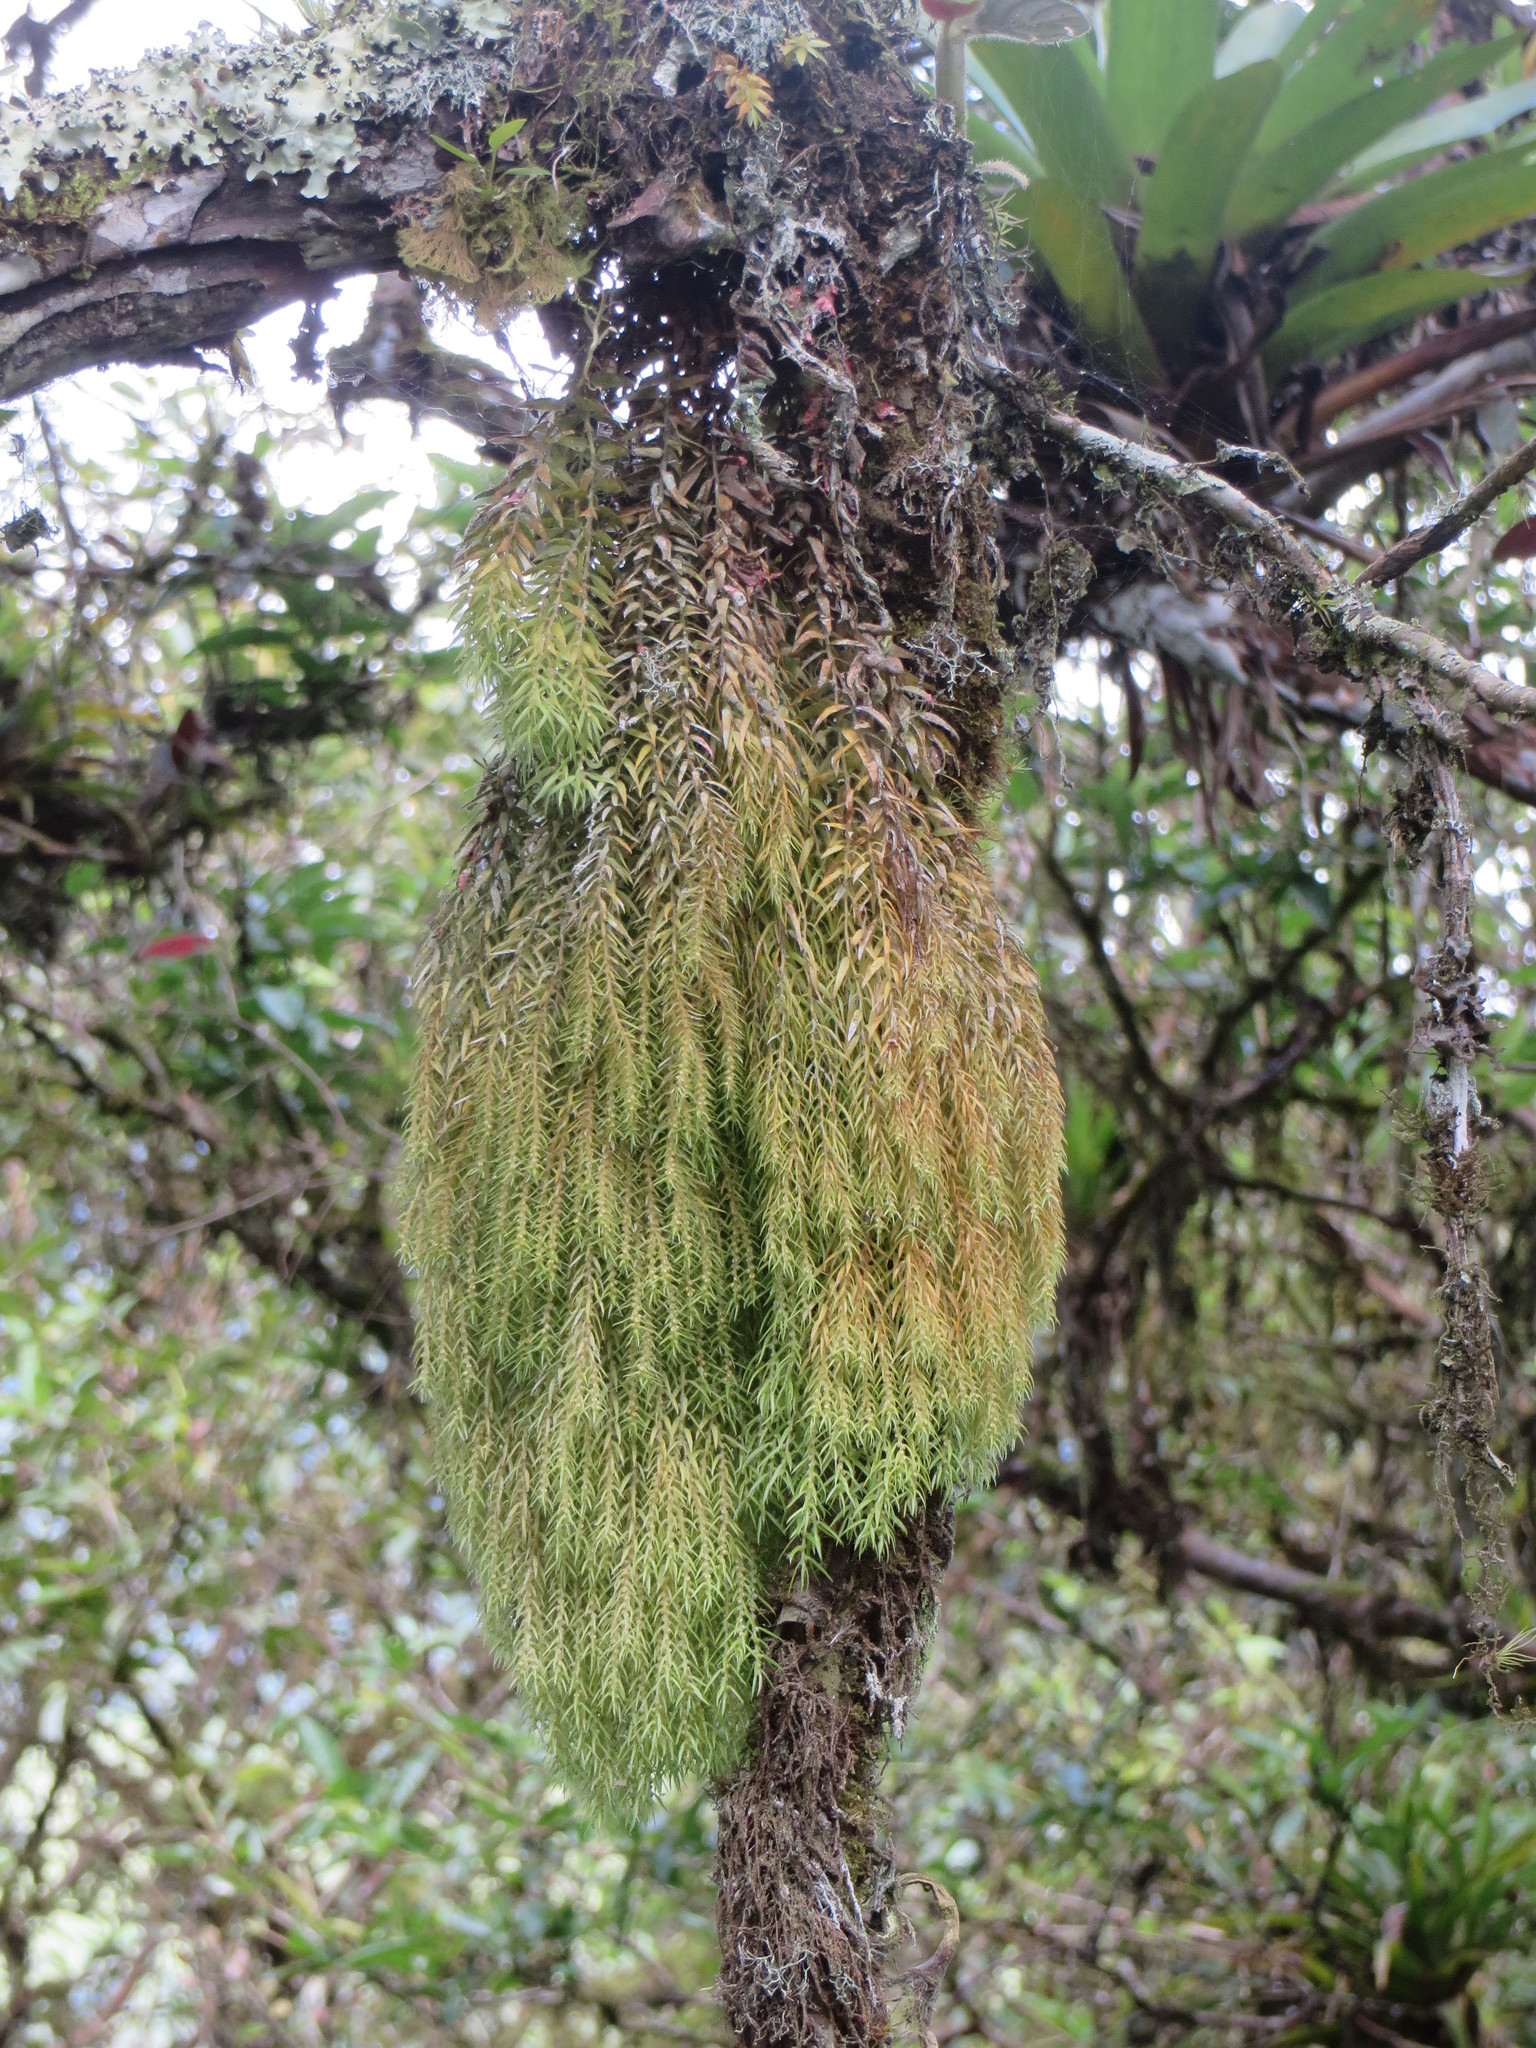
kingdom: Plantae
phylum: Tracheophyta
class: Lycopodiopsida
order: Lycopodiales
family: Lycopodiaceae
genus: Phlegmariurus
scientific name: Phlegmariurus linifolius
